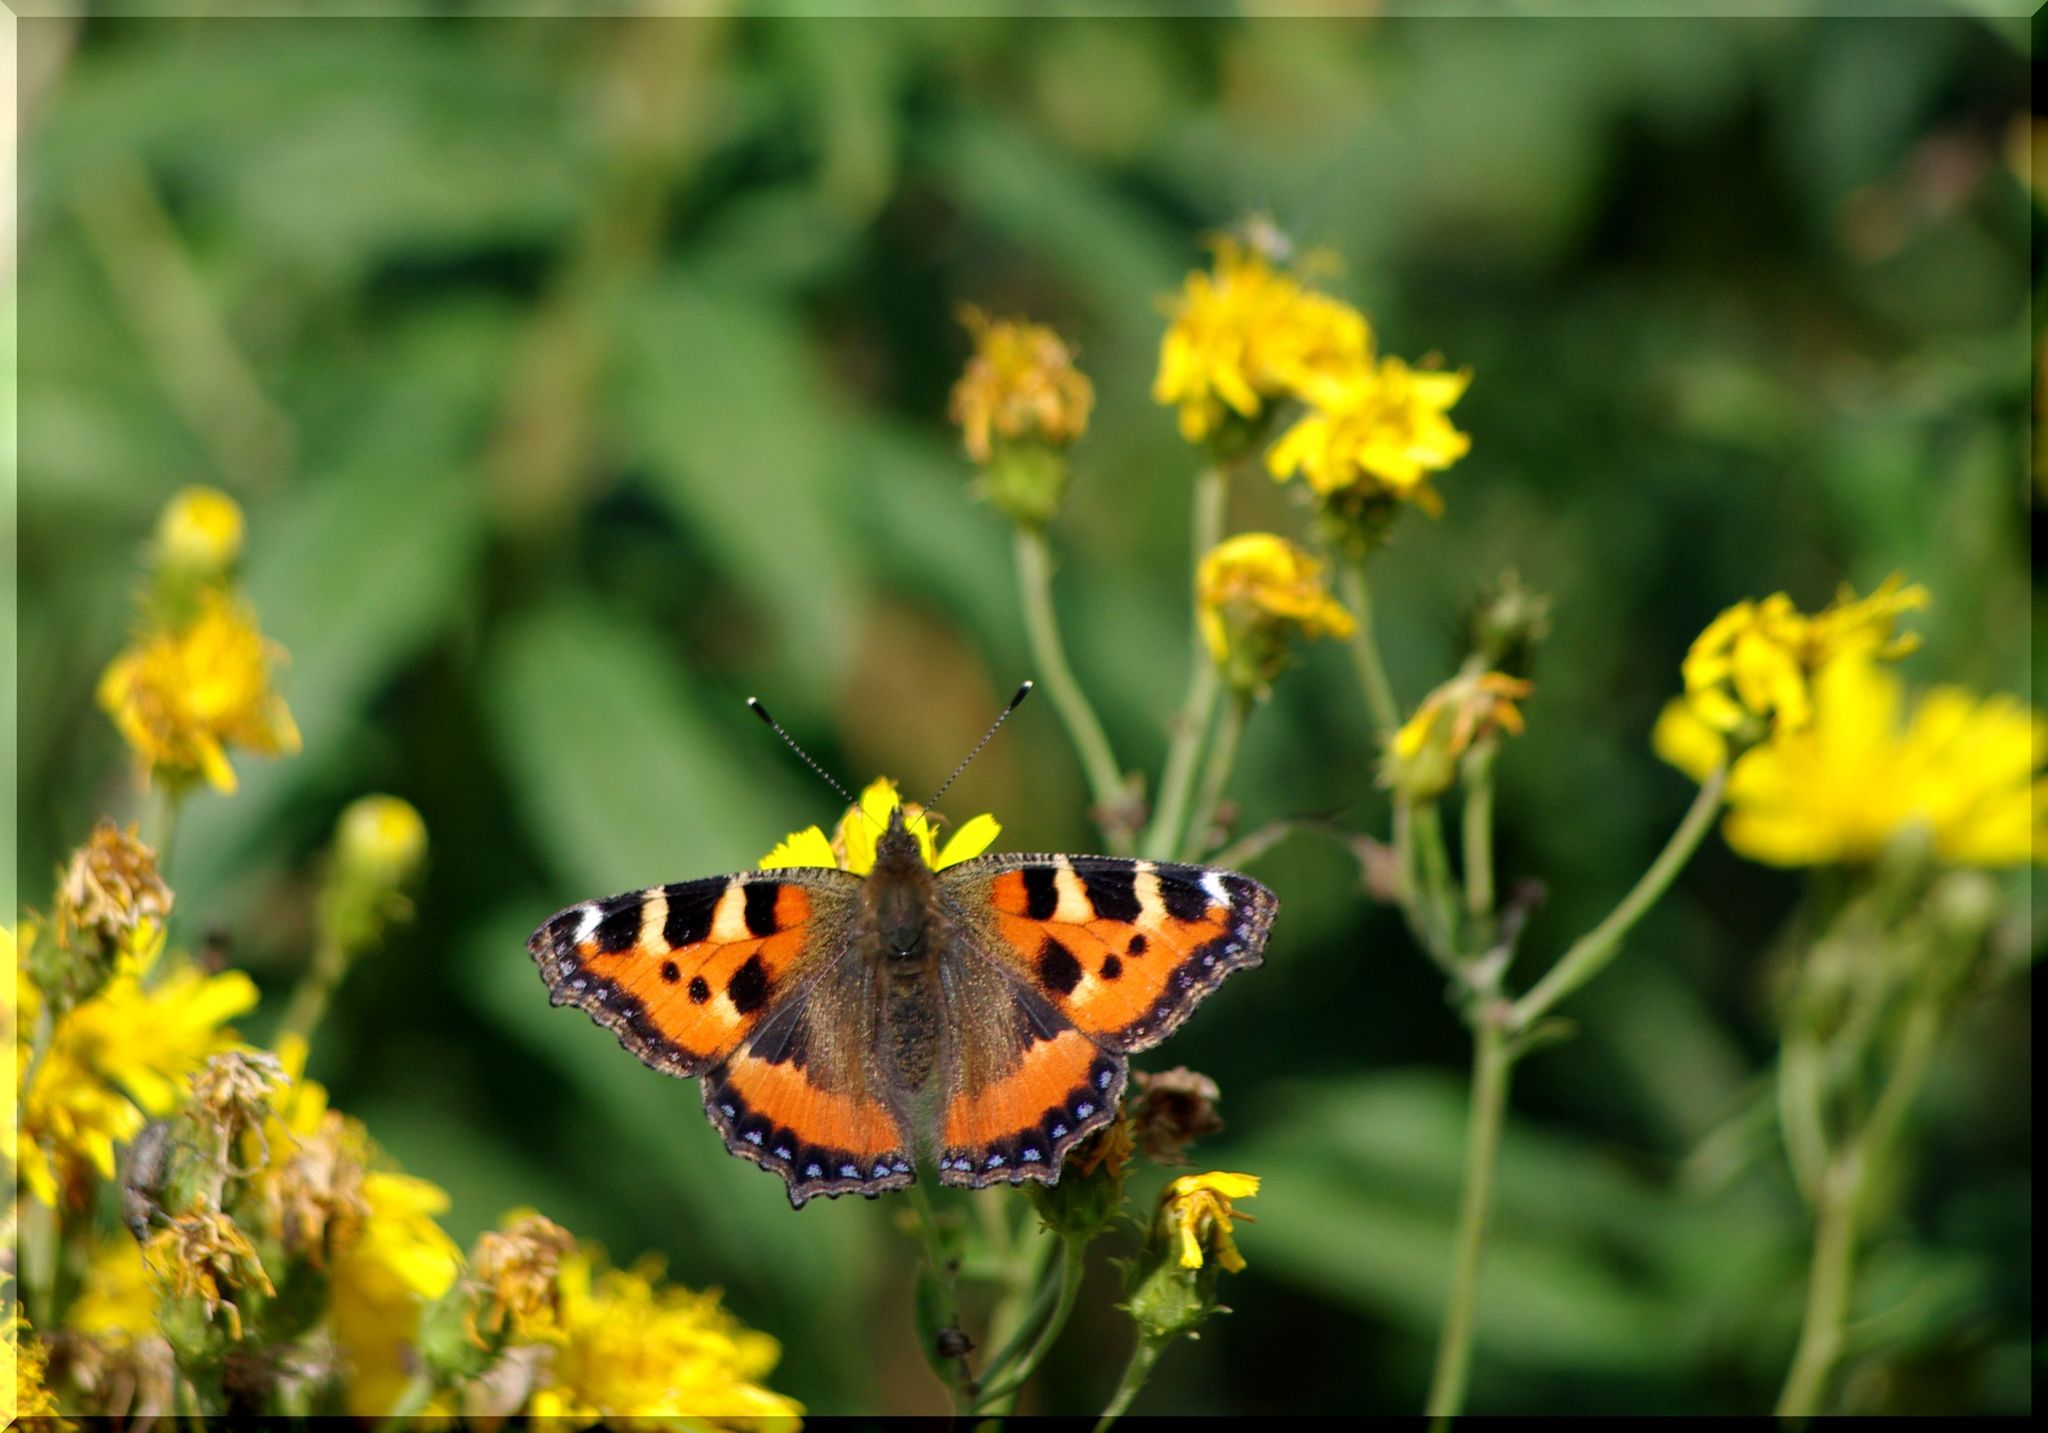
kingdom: Animalia
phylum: Arthropoda
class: Insecta
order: Lepidoptera
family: Nymphalidae
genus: Aglais
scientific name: Aglais urticae
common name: Small tortoiseshell
